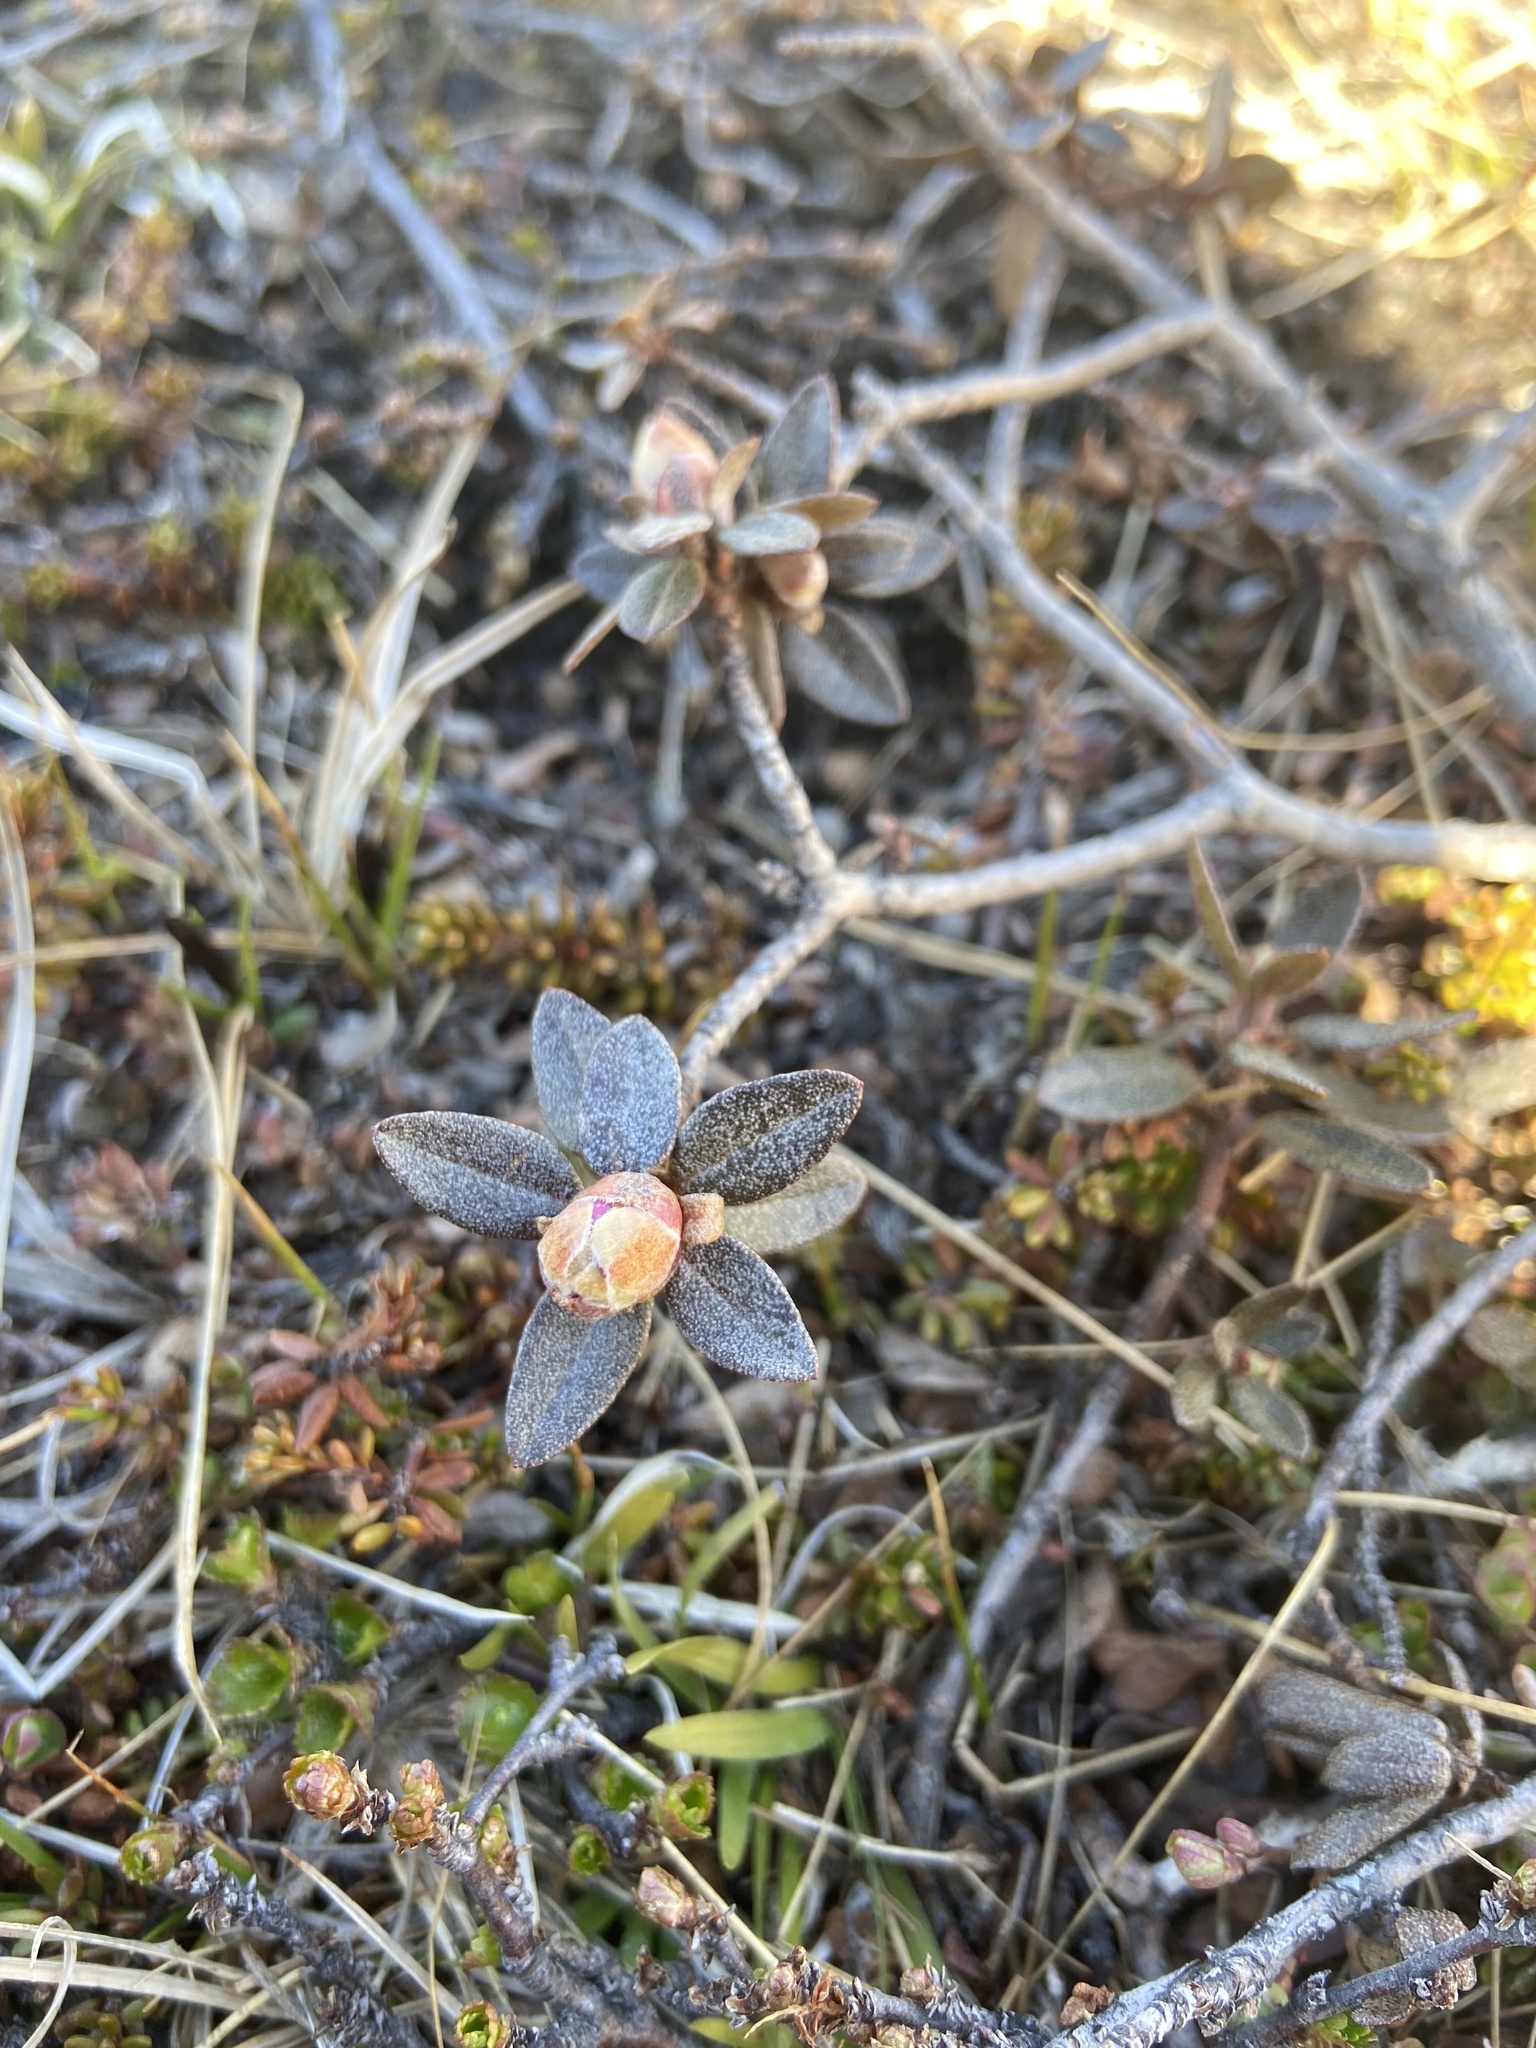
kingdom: Plantae
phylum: Tracheophyta
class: Magnoliopsida
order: Ericales
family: Ericaceae
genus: Rhododendron
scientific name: Rhododendron lapponicum
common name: Lapland rhododendron
